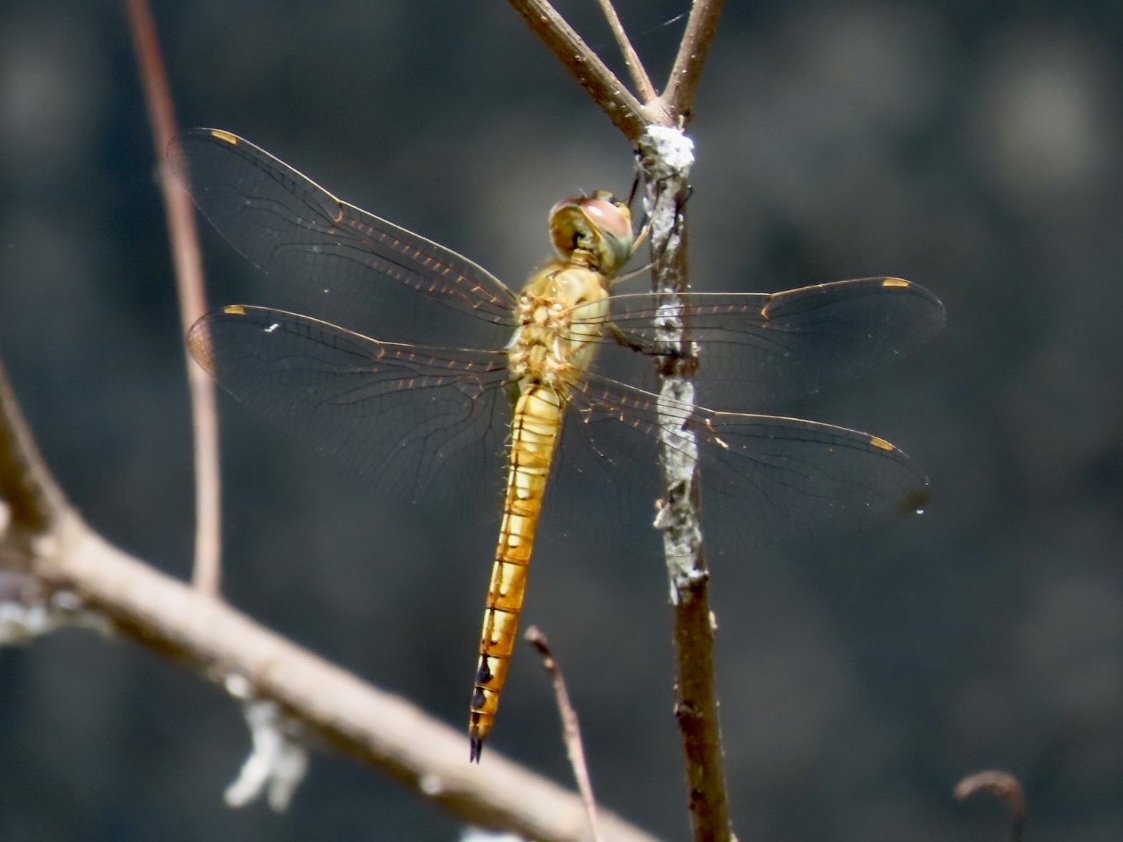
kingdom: Animalia
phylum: Arthropoda
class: Insecta
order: Odonata
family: Libellulidae
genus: Pantala
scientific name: Pantala flavescens
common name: Wandering glider
